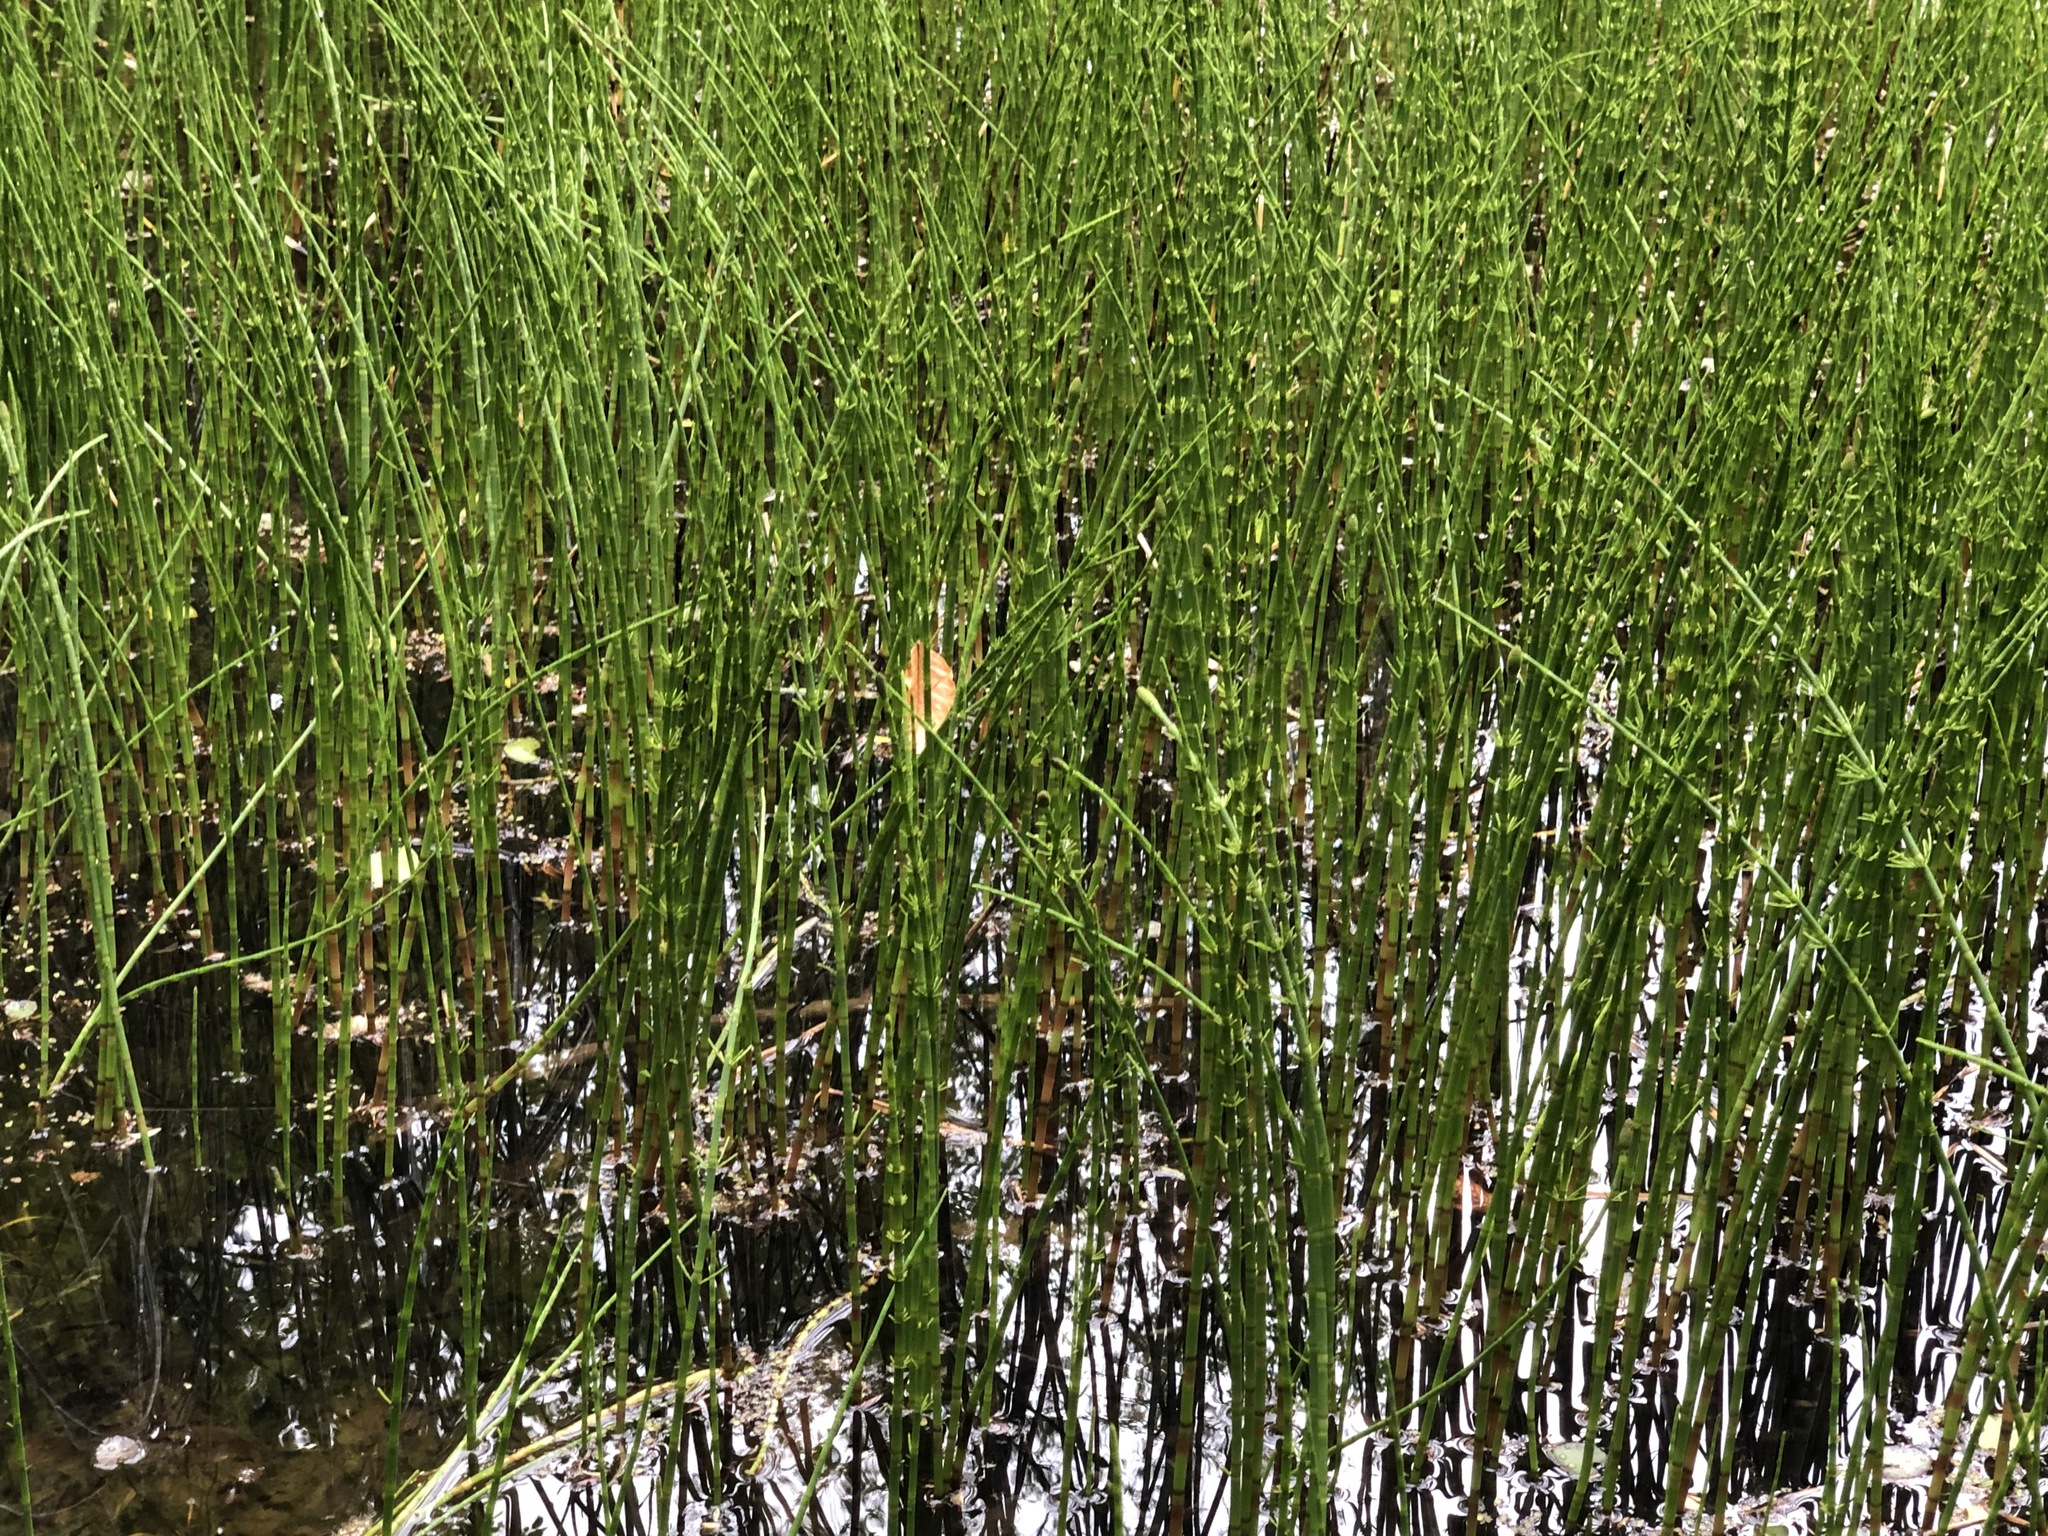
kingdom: Plantae
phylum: Tracheophyta
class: Polypodiopsida
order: Equisetales
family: Equisetaceae
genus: Equisetum
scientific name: Equisetum fluviatile
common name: Water horsetail
